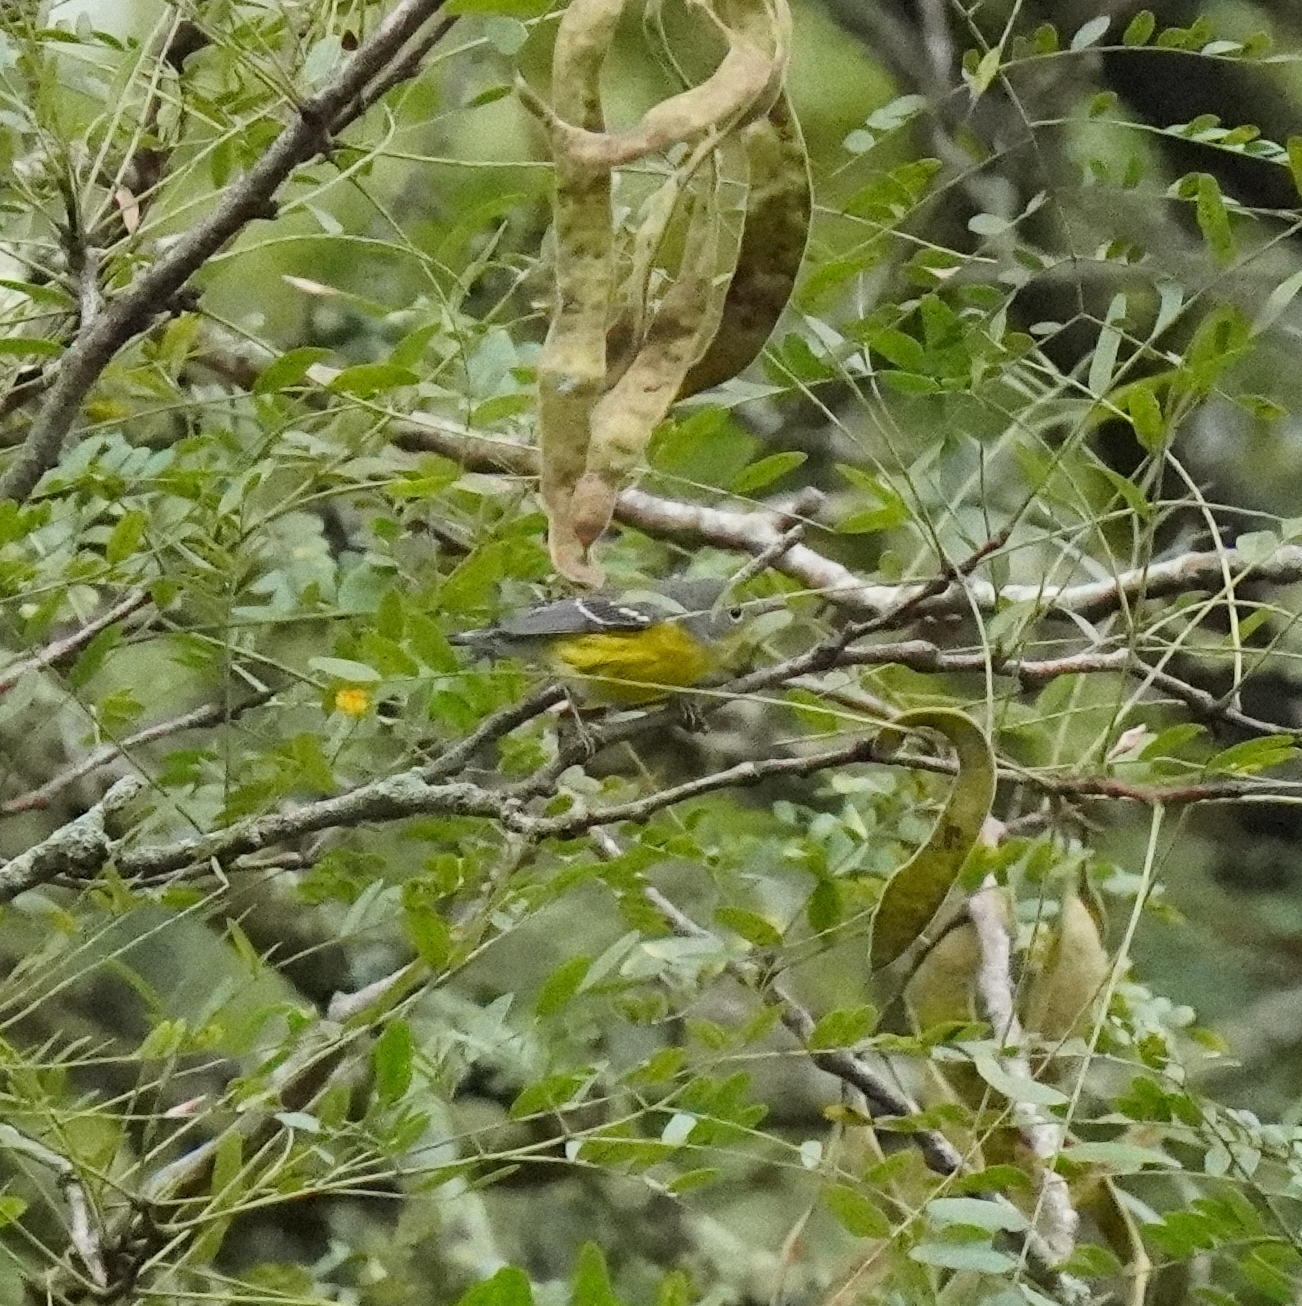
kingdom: Animalia
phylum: Chordata
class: Aves
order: Passeriformes
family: Parulidae
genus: Setophaga
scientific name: Setophaga magnolia
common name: Magnolia warbler
